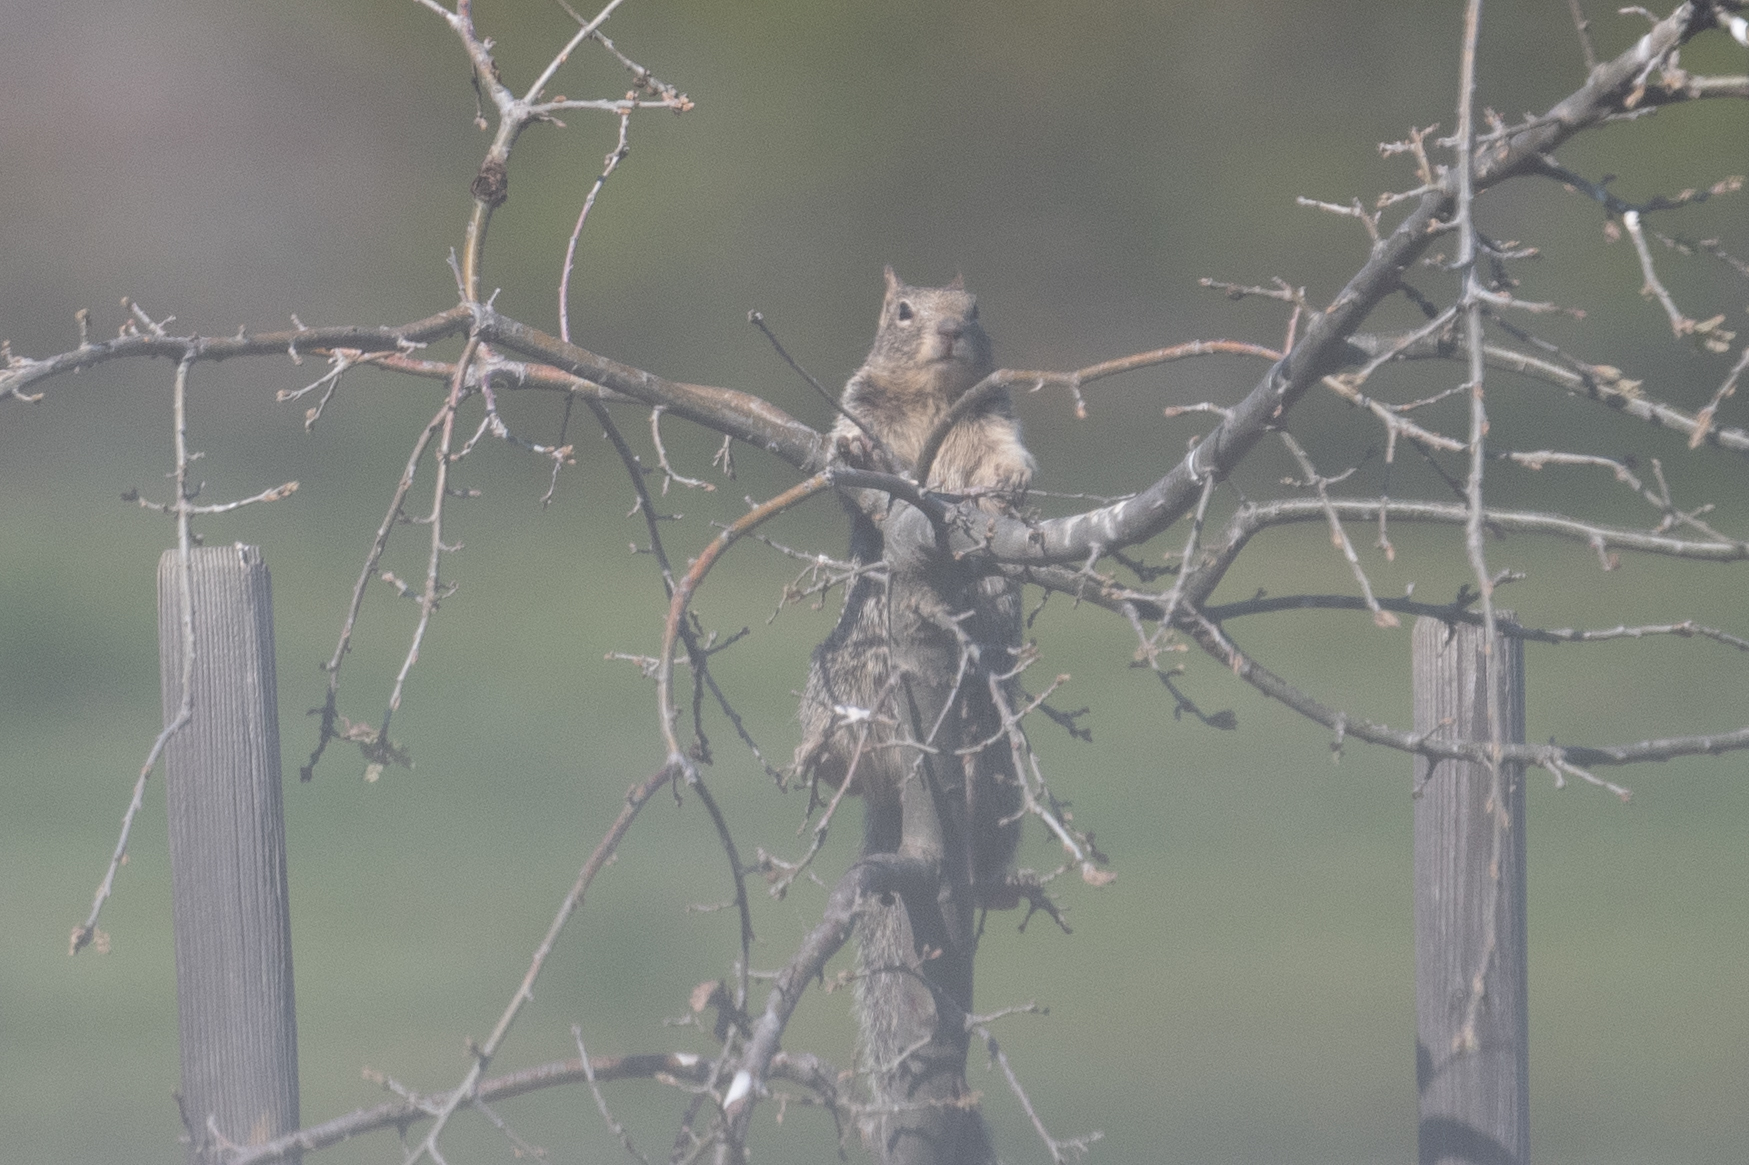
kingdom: Animalia
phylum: Chordata
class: Mammalia
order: Rodentia
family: Sciuridae
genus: Otospermophilus
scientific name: Otospermophilus beecheyi
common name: California ground squirrel
